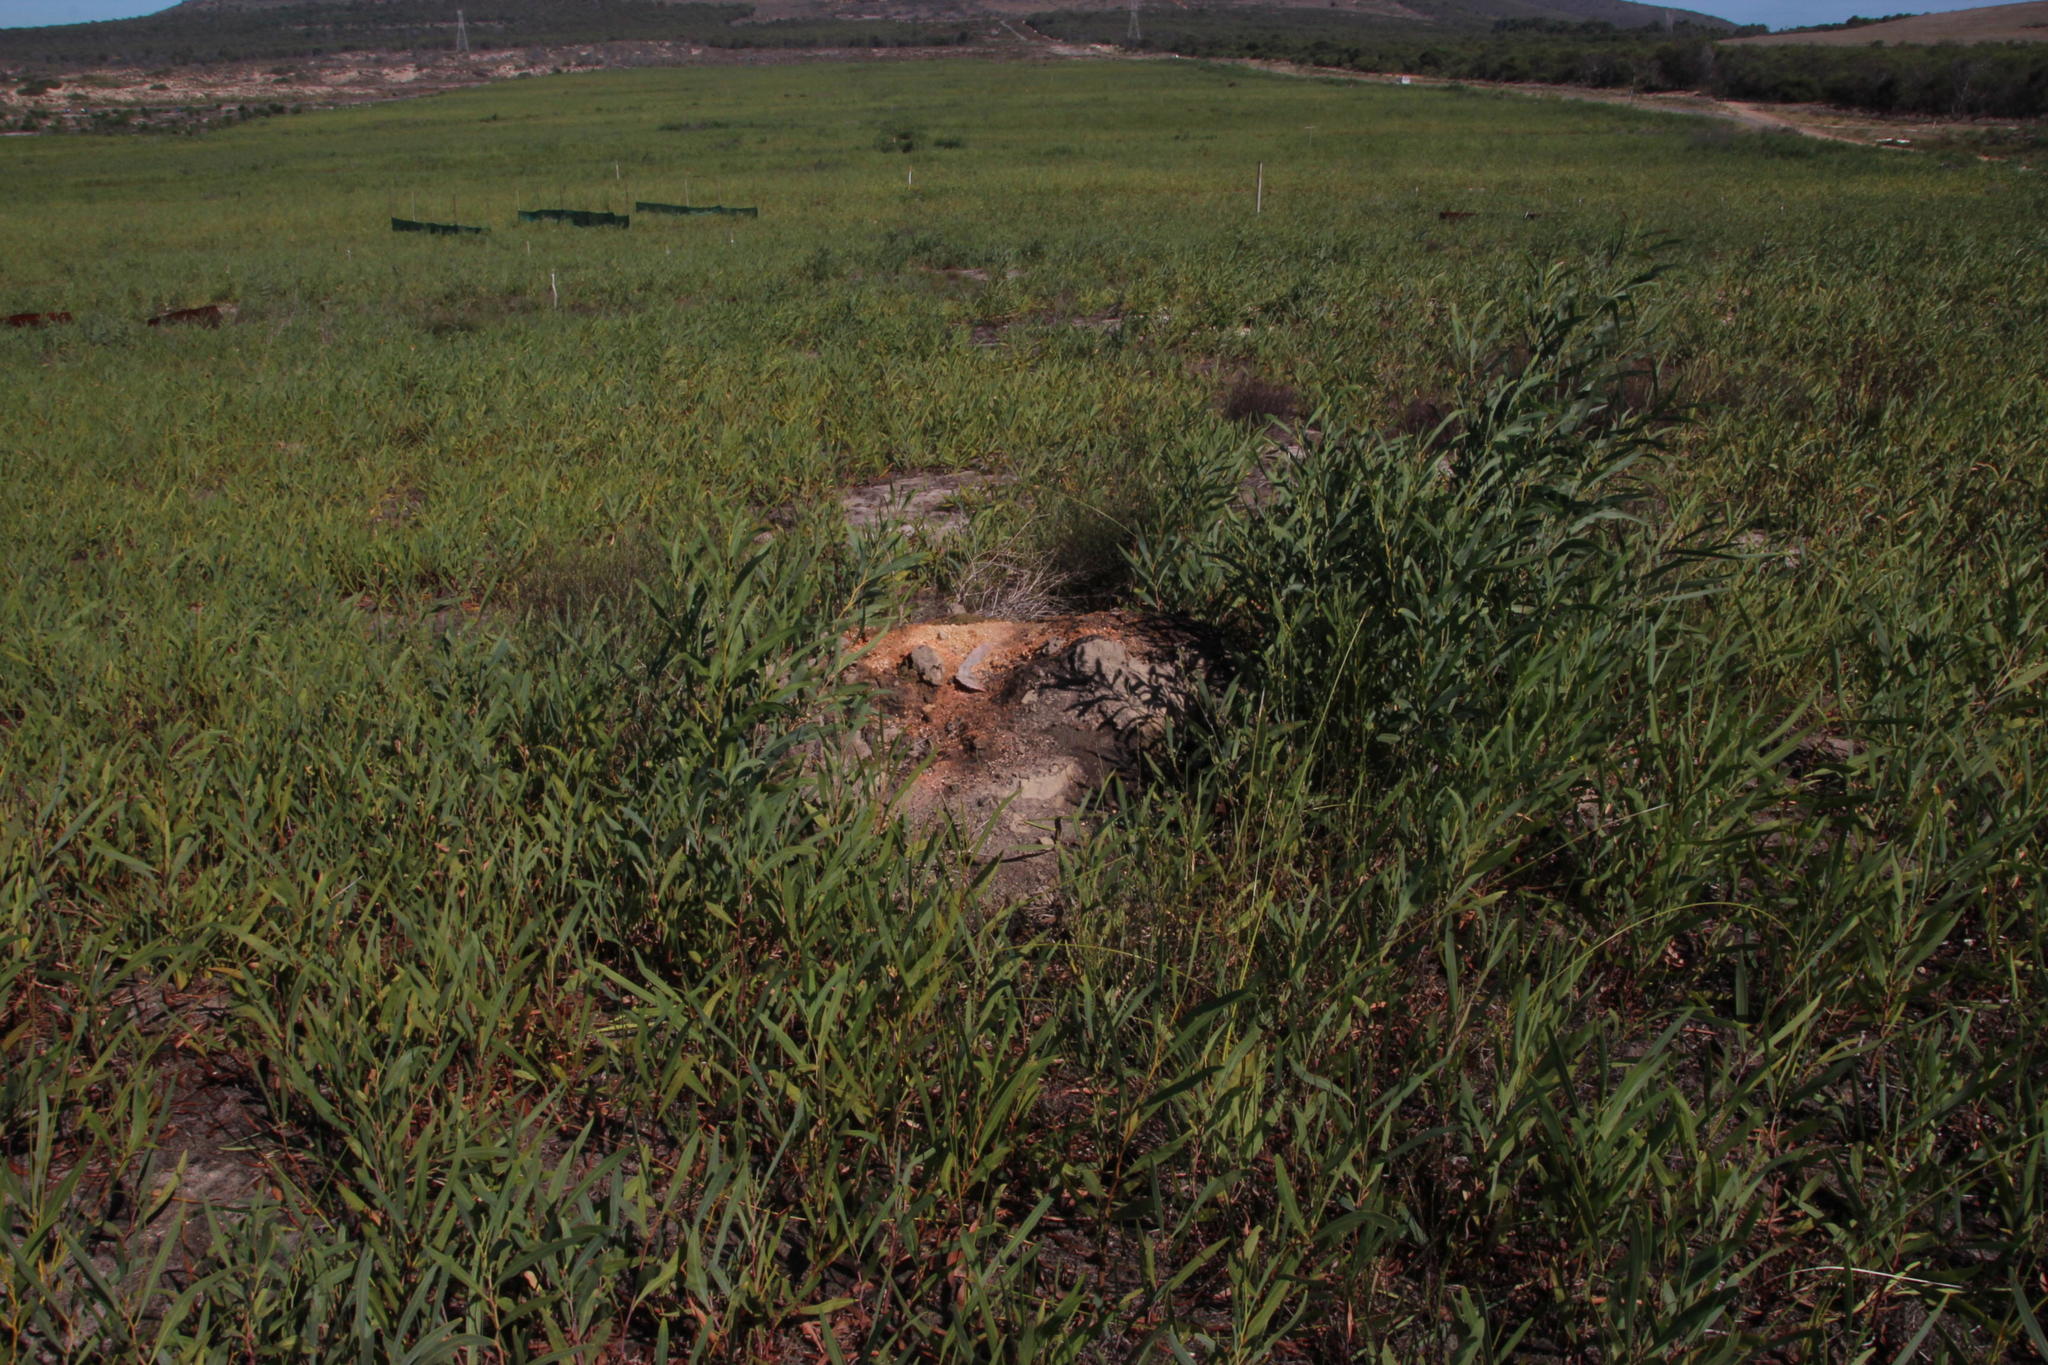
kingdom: Animalia
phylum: Arthropoda
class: Insecta
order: Blattodea
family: Termitidae
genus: Amitermes
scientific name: Amitermes hastatus
